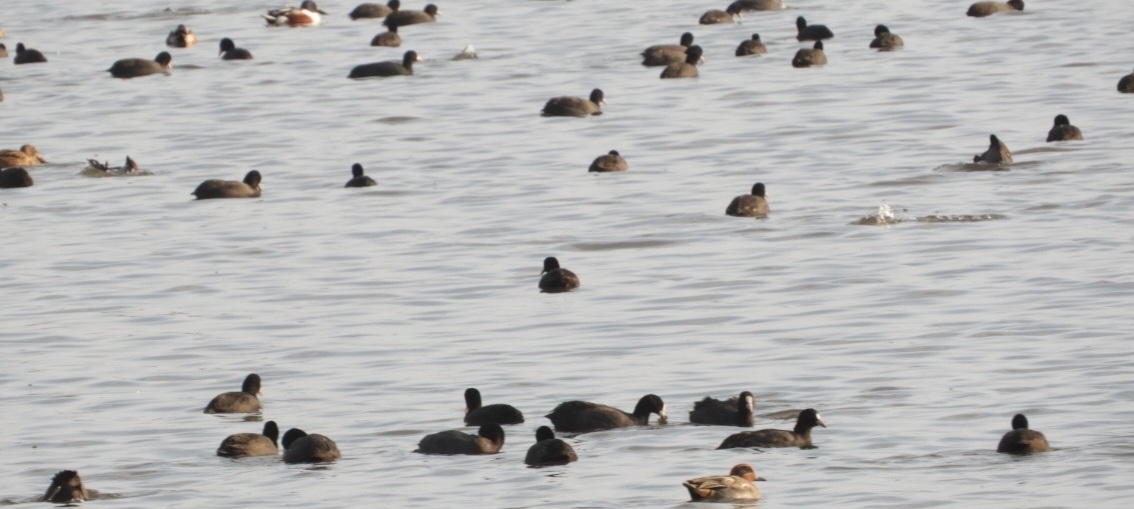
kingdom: Animalia
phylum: Chordata
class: Aves
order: Gruiformes
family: Rallidae
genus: Fulica
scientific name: Fulica atra
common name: Eurasian coot
